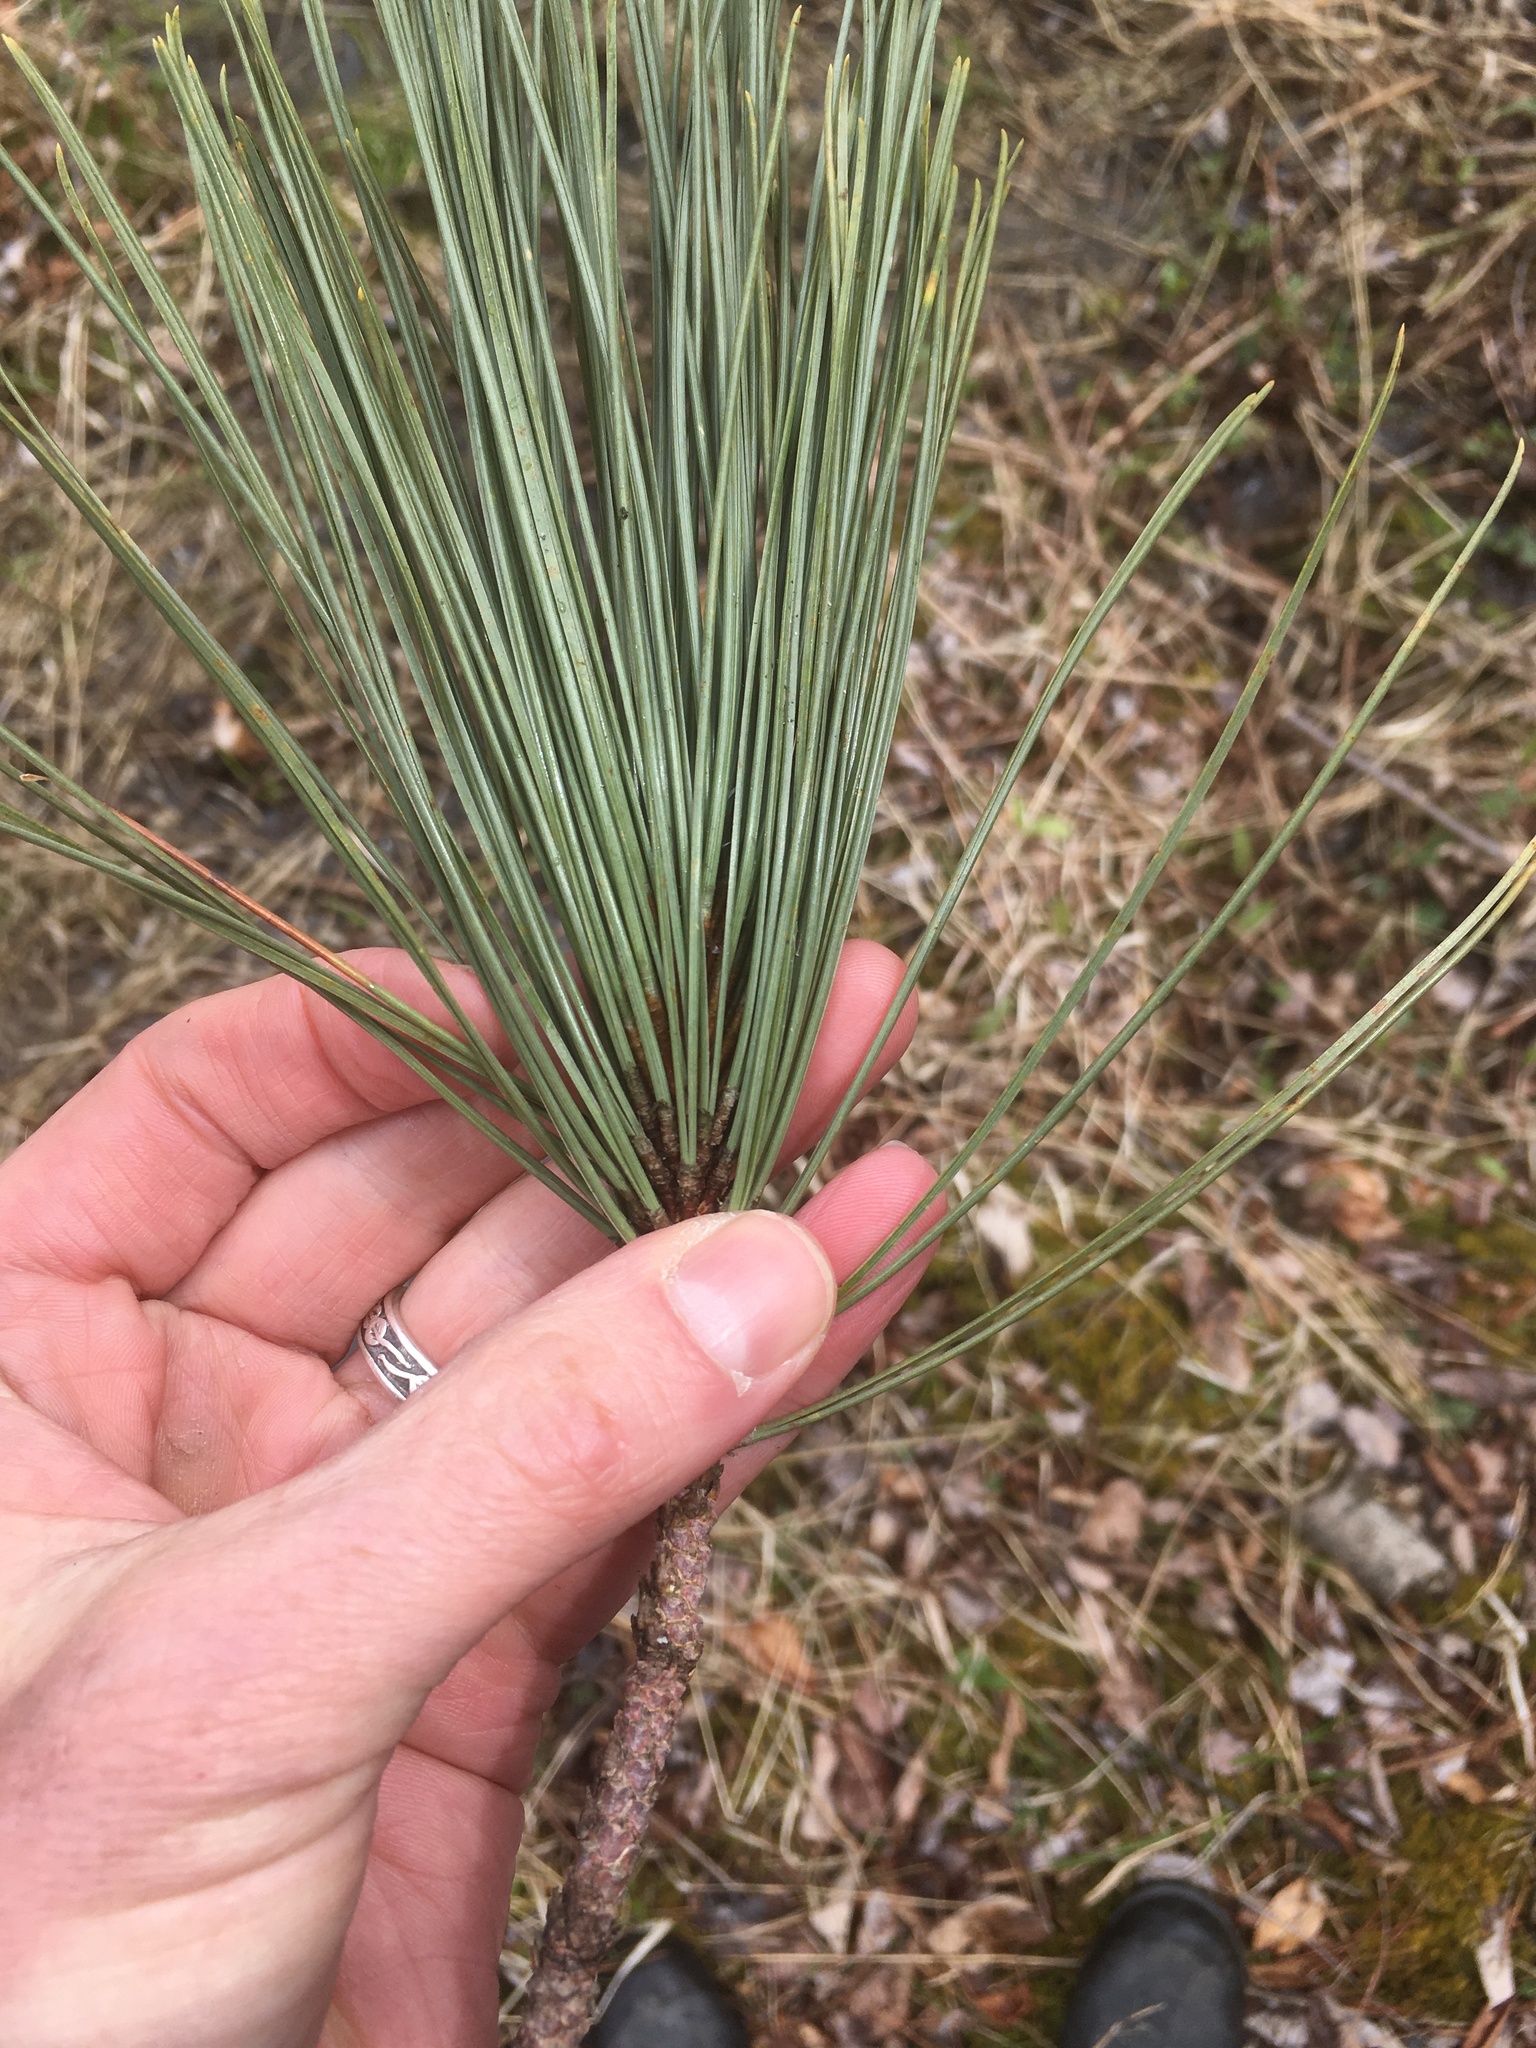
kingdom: Plantae
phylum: Tracheophyta
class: Pinopsida
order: Pinales
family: Pinaceae
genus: Pinus
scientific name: Pinus resinosa
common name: Norway pine
